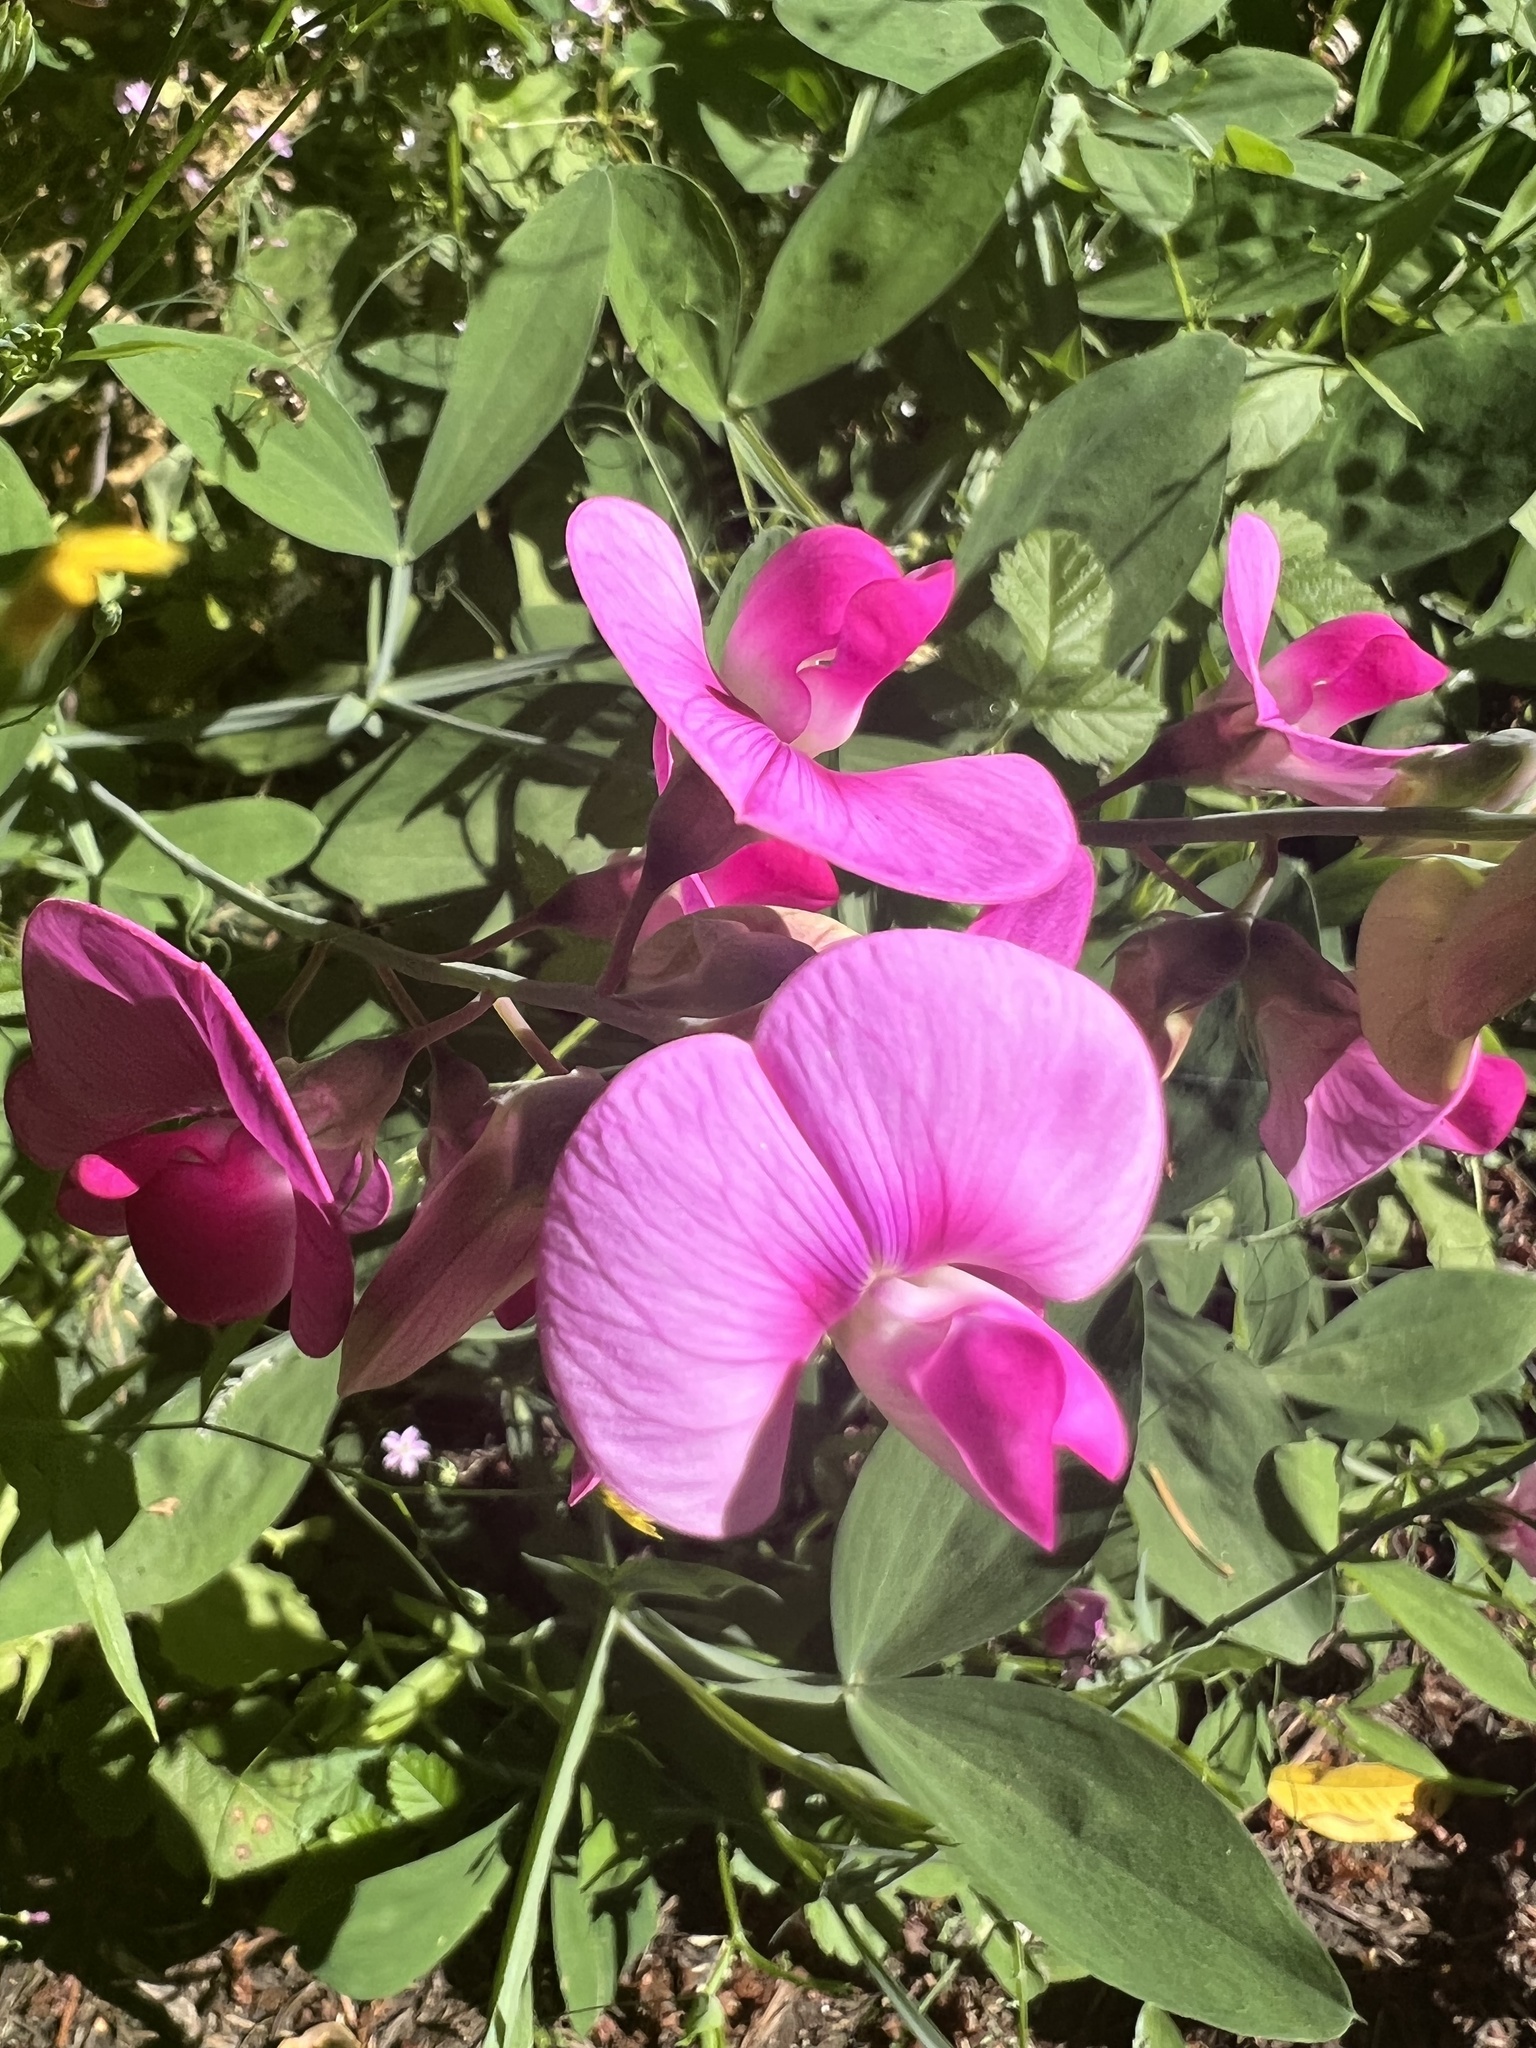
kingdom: Plantae
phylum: Tracheophyta
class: Magnoliopsida
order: Fabales
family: Fabaceae
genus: Lathyrus
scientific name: Lathyrus latifolius
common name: Perennial pea
